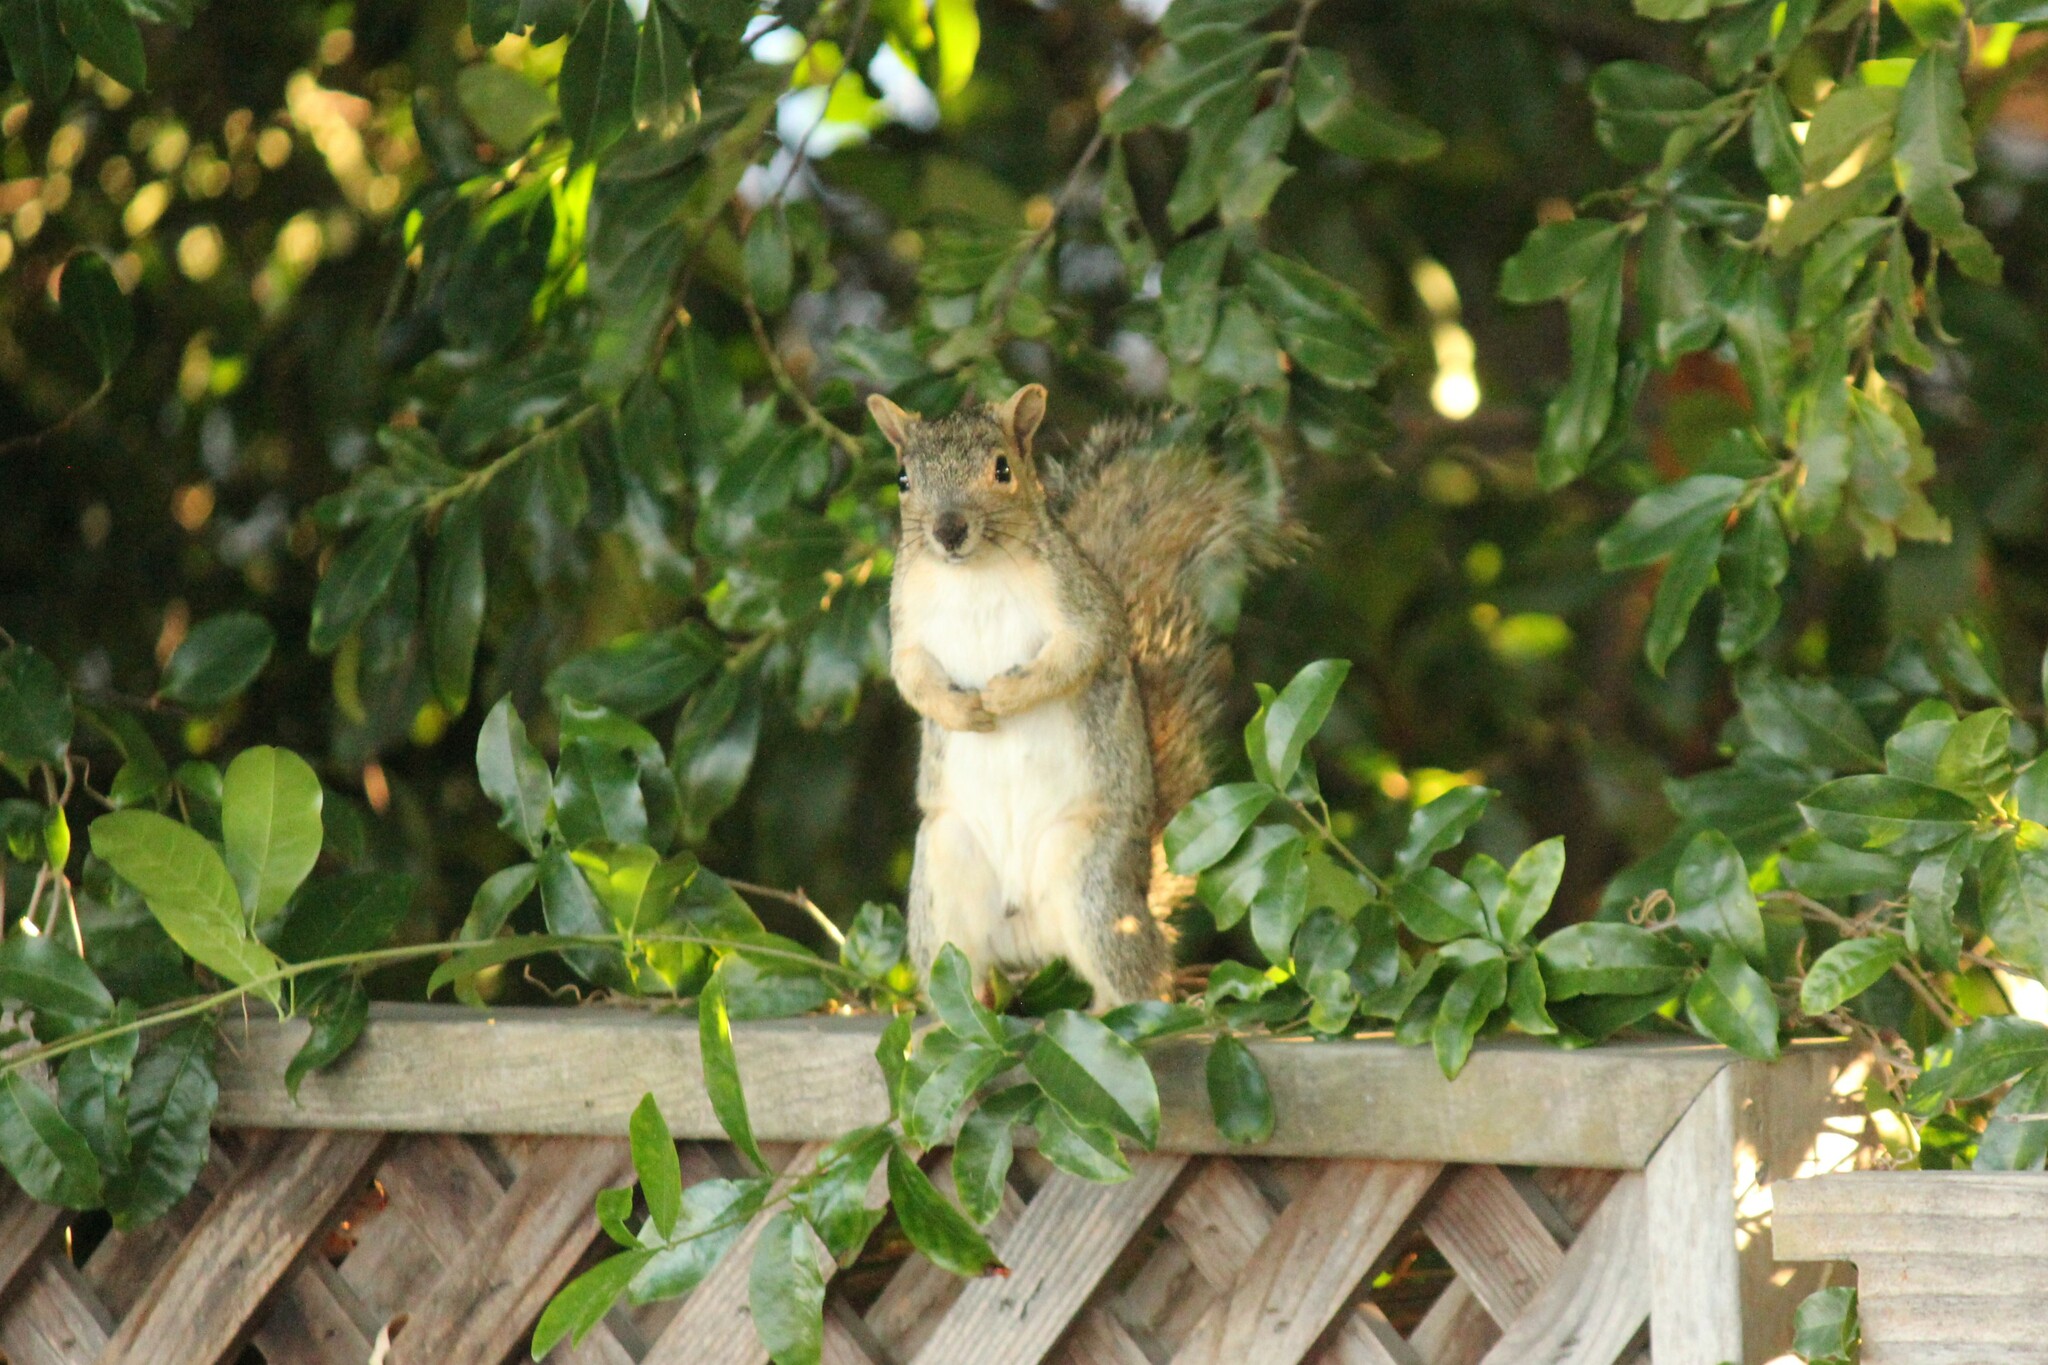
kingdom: Animalia
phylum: Chordata
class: Mammalia
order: Rodentia
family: Sciuridae
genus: Sciurus
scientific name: Sciurus niger
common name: Fox squirrel
